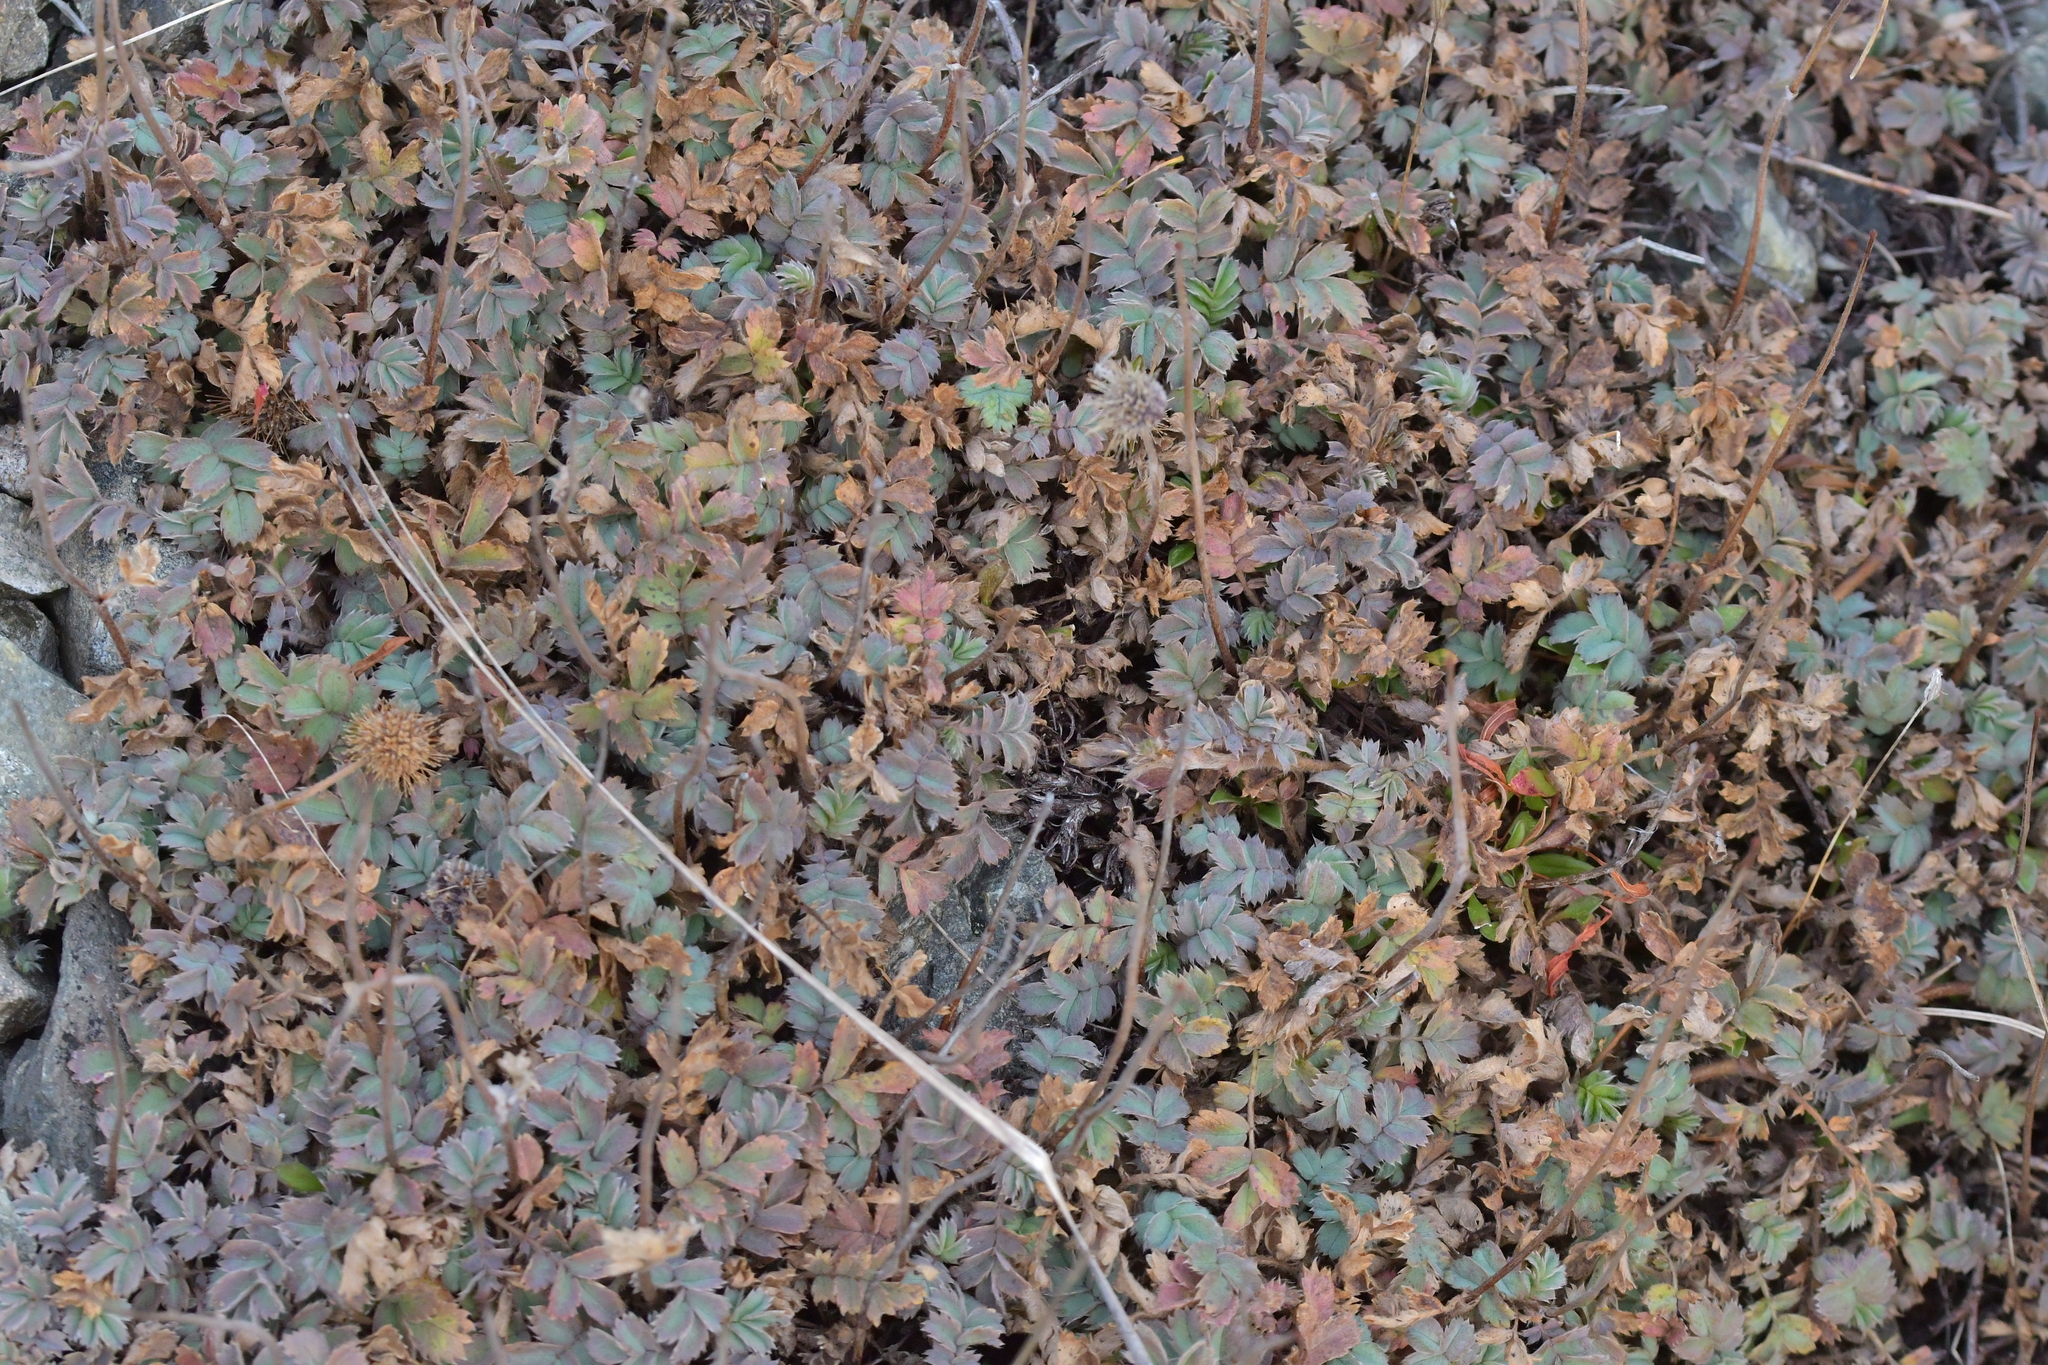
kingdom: Plantae
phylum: Tracheophyta
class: Magnoliopsida
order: Rosales
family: Rosaceae
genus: Acaena
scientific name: Acaena caesiiglauca
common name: Glaucous pirri-pirri-bur
